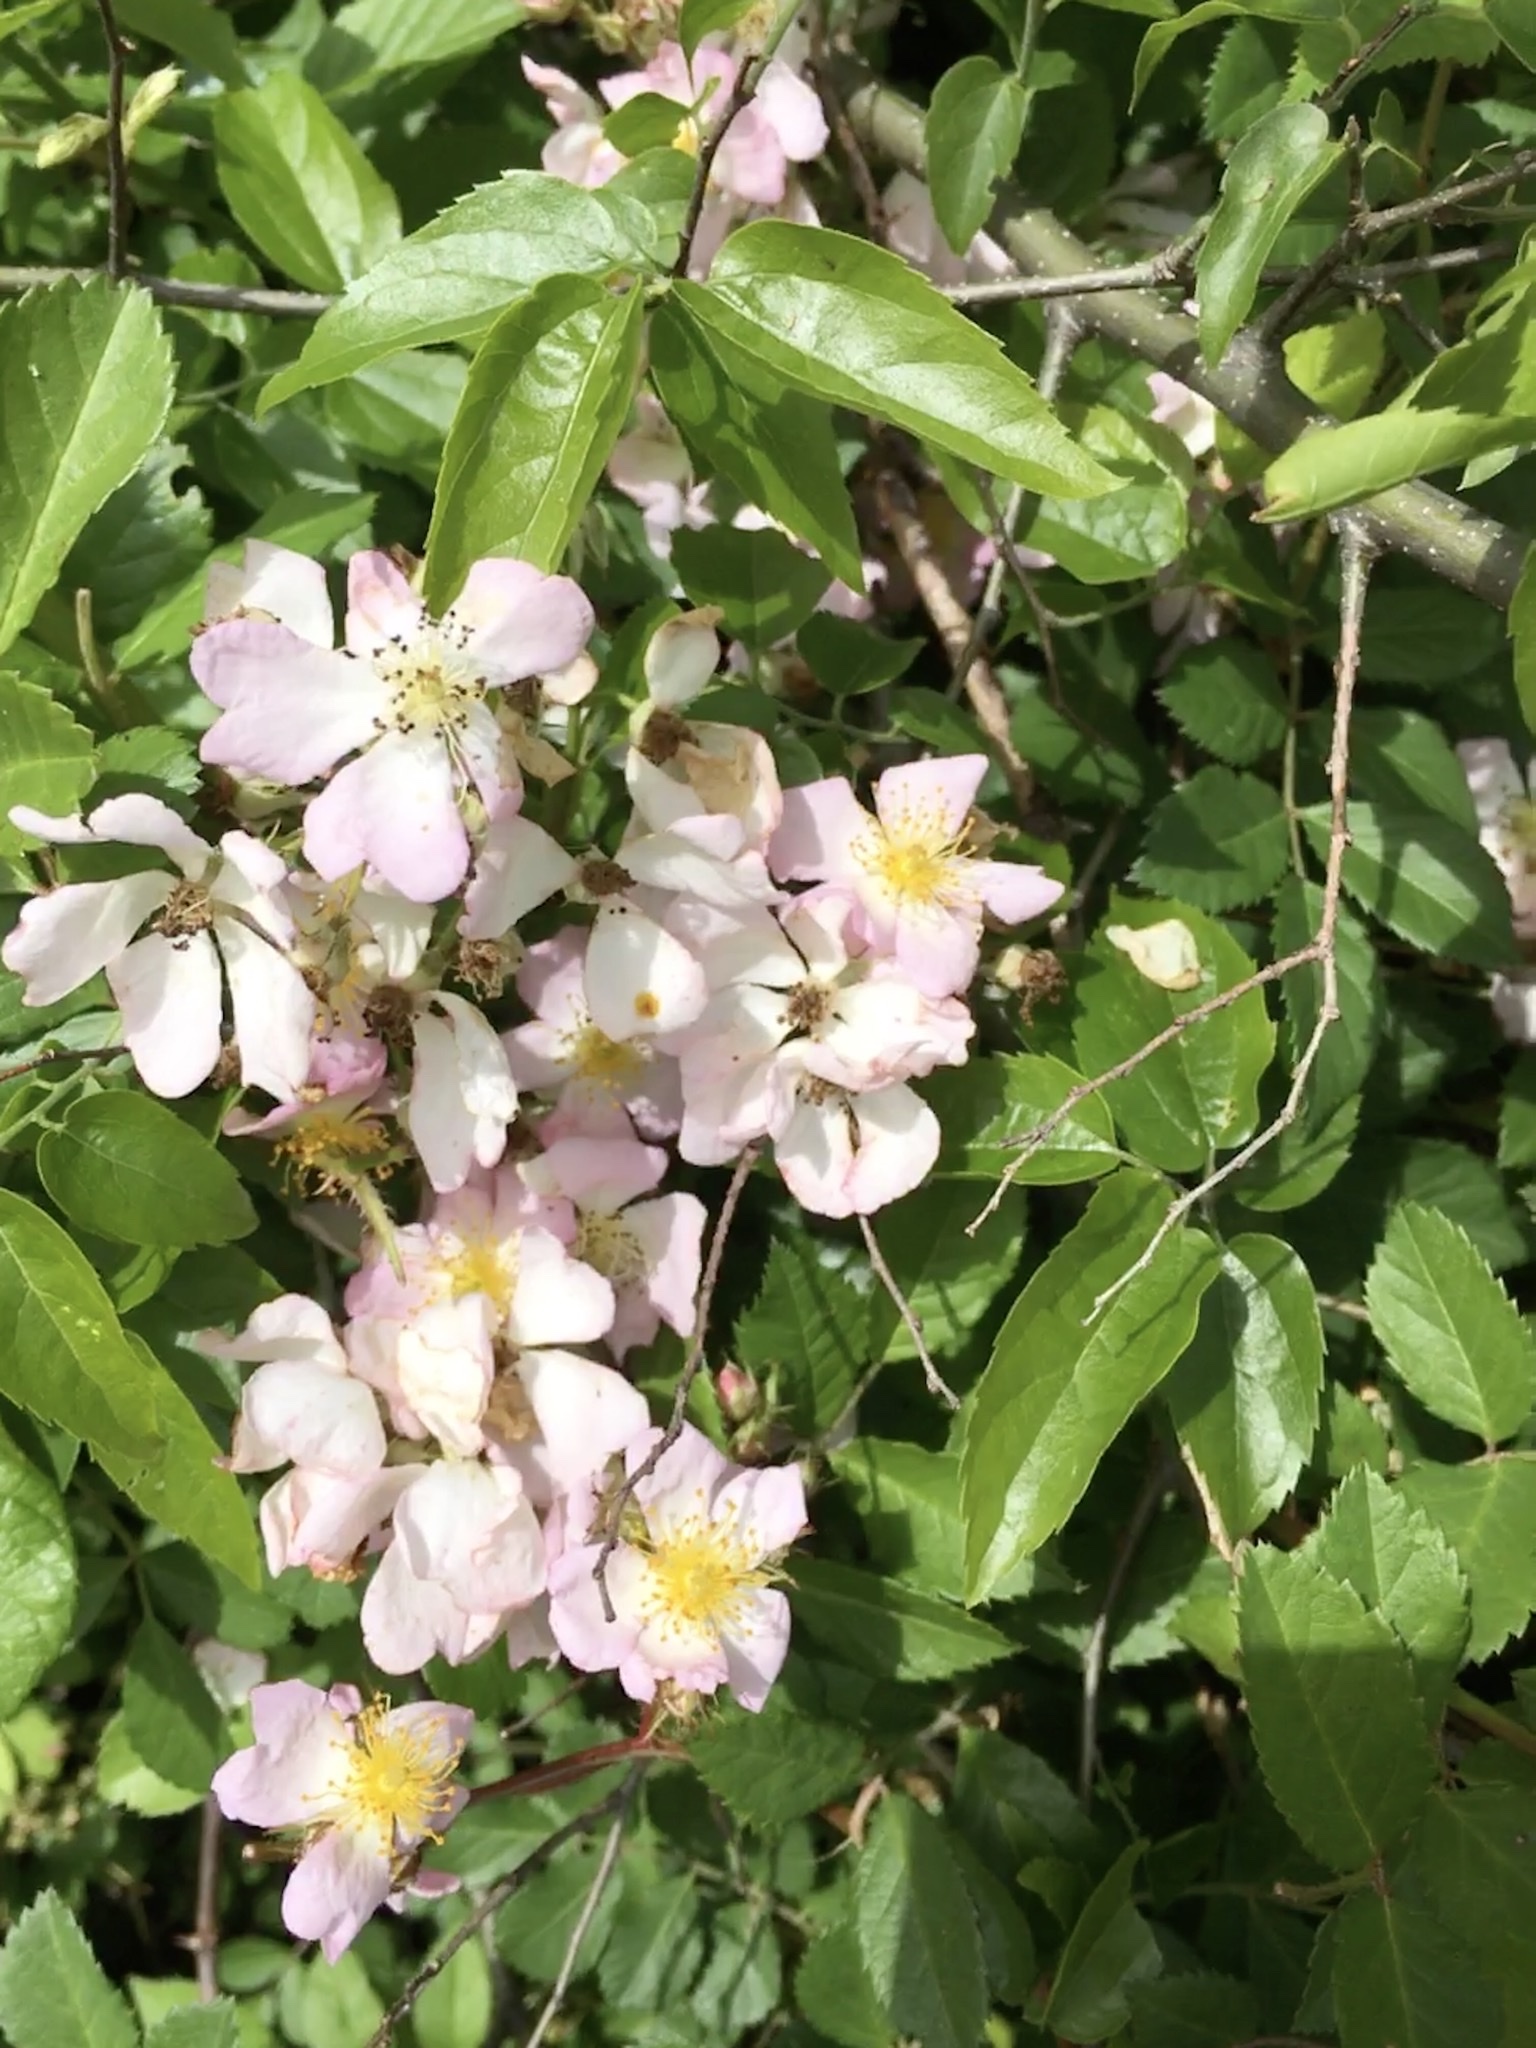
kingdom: Plantae
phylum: Tracheophyta
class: Magnoliopsida
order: Rosales
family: Rosaceae
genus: Rosa
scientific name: Rosa multiflora
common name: Multiflora rose
